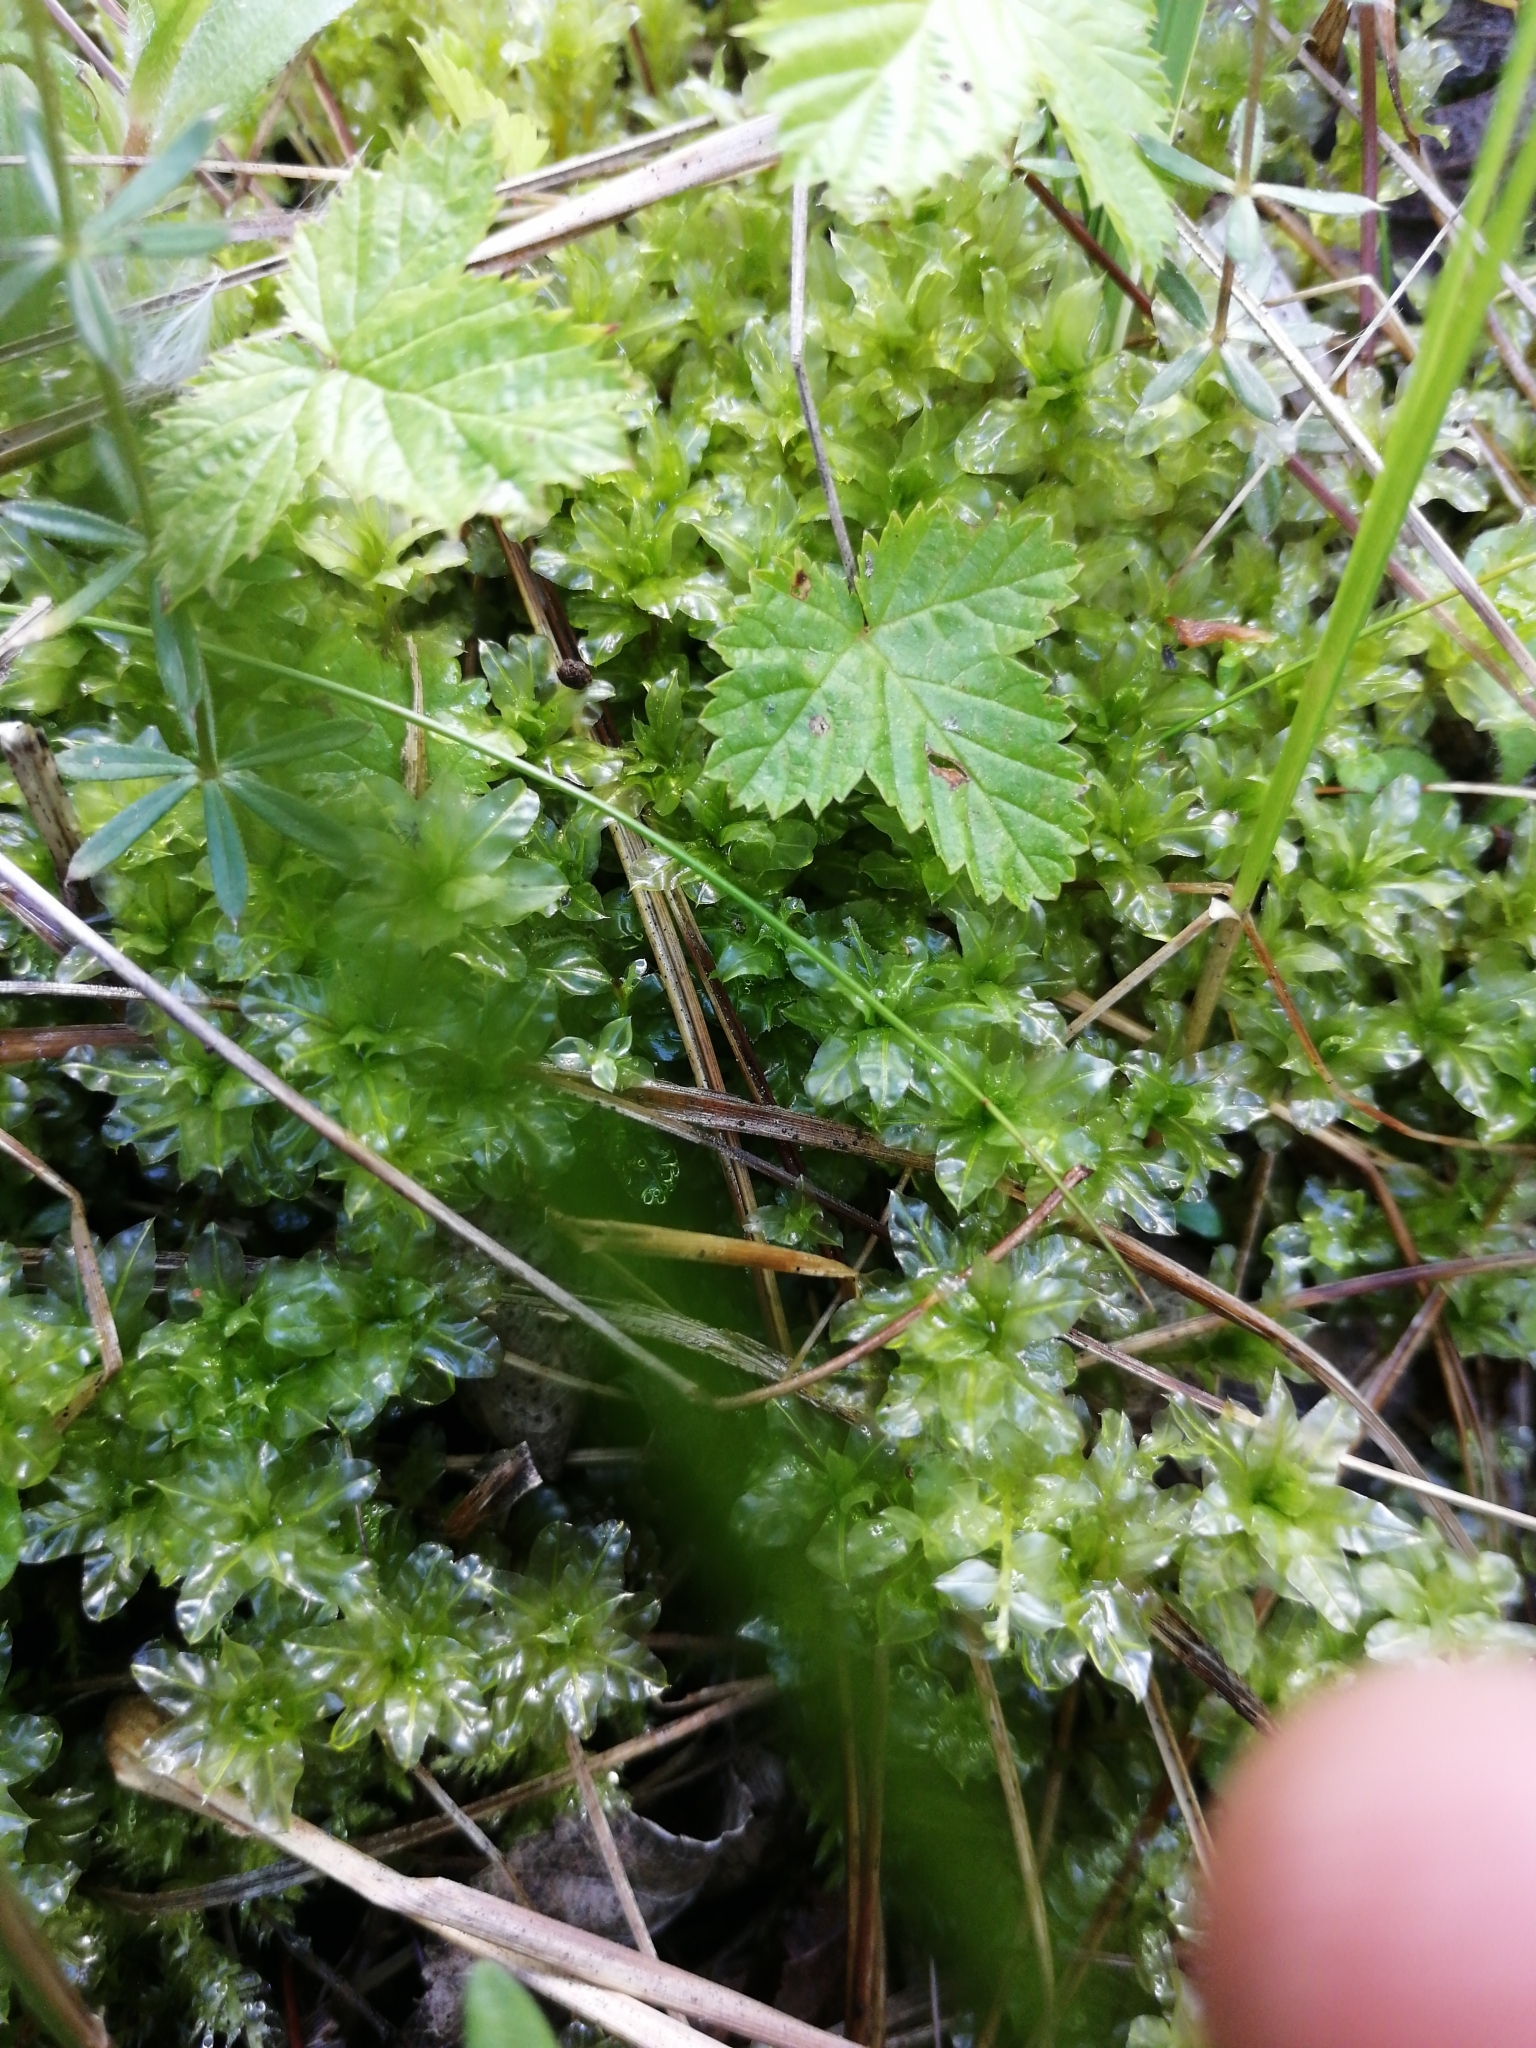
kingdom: Plantae
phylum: Bryophyta
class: Bryopsida
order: Bryales
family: Mniaceae
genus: Plagiomnium
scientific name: Plagiomnium undulatum
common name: Hart's-tongue thyme-moss
